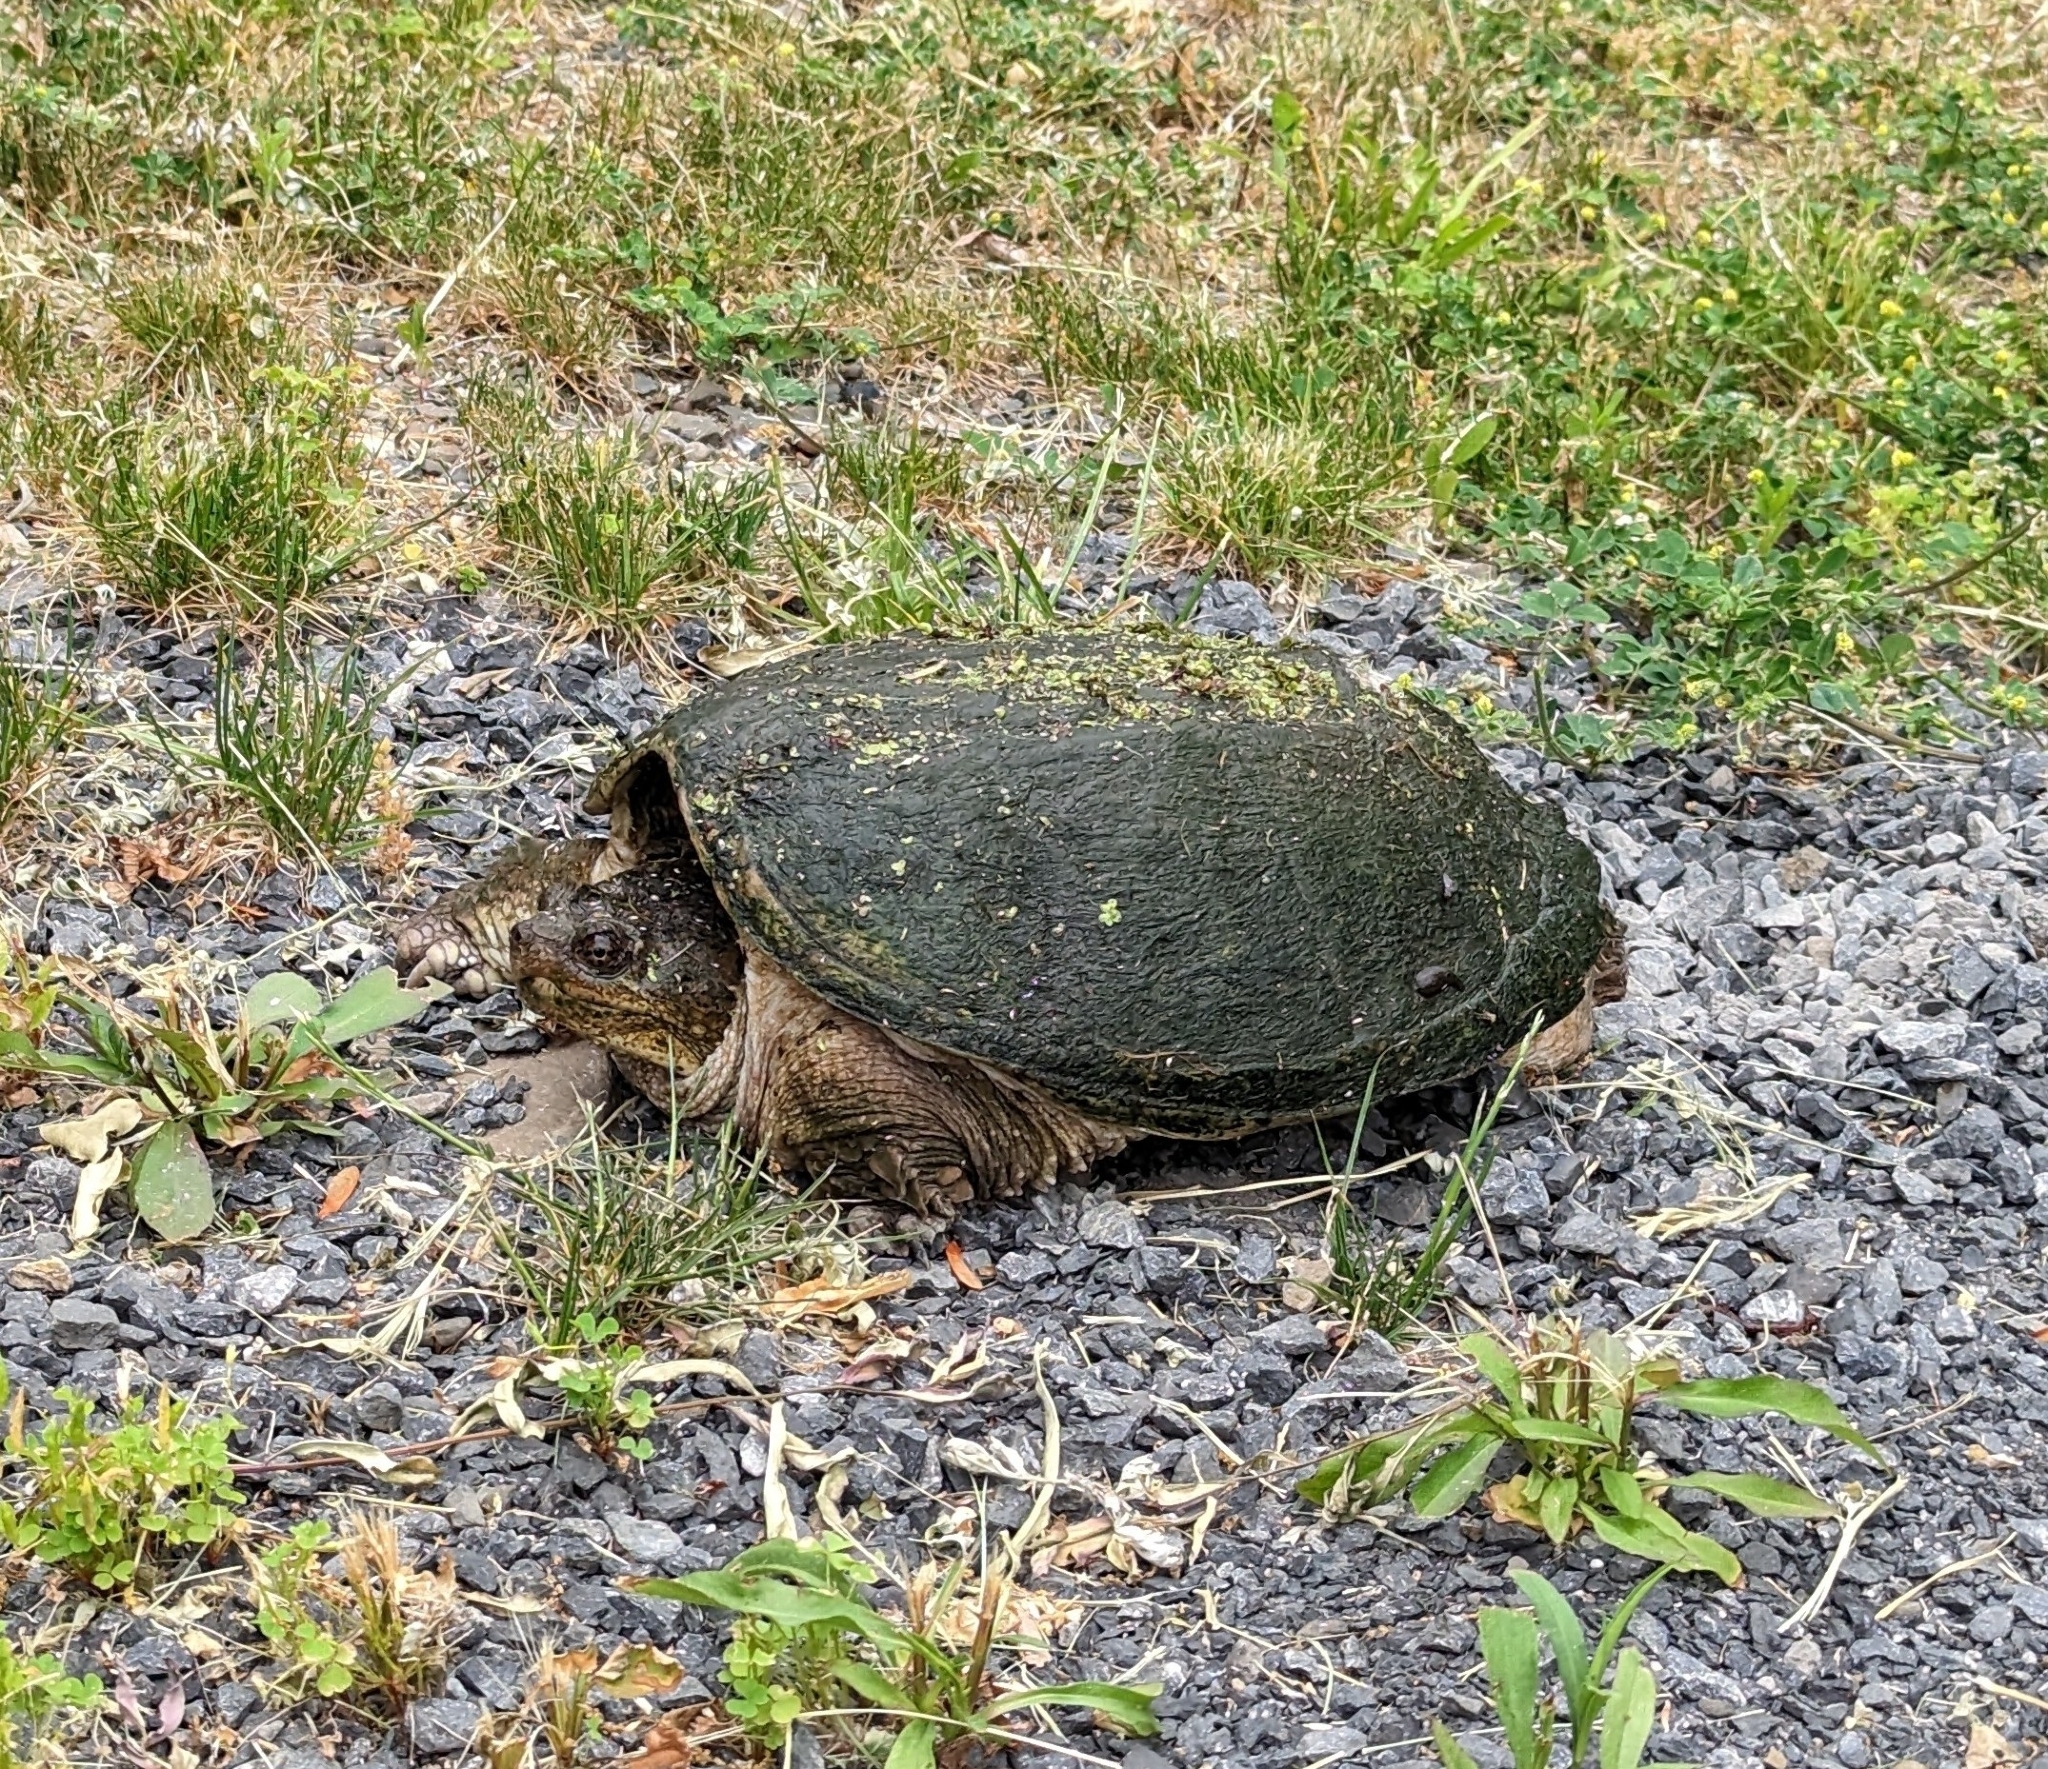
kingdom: Animalia
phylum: Chordata
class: Testudines
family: Chelydridae
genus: Chelydra
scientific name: Chelydra serpentina
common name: Common snapping turtle
